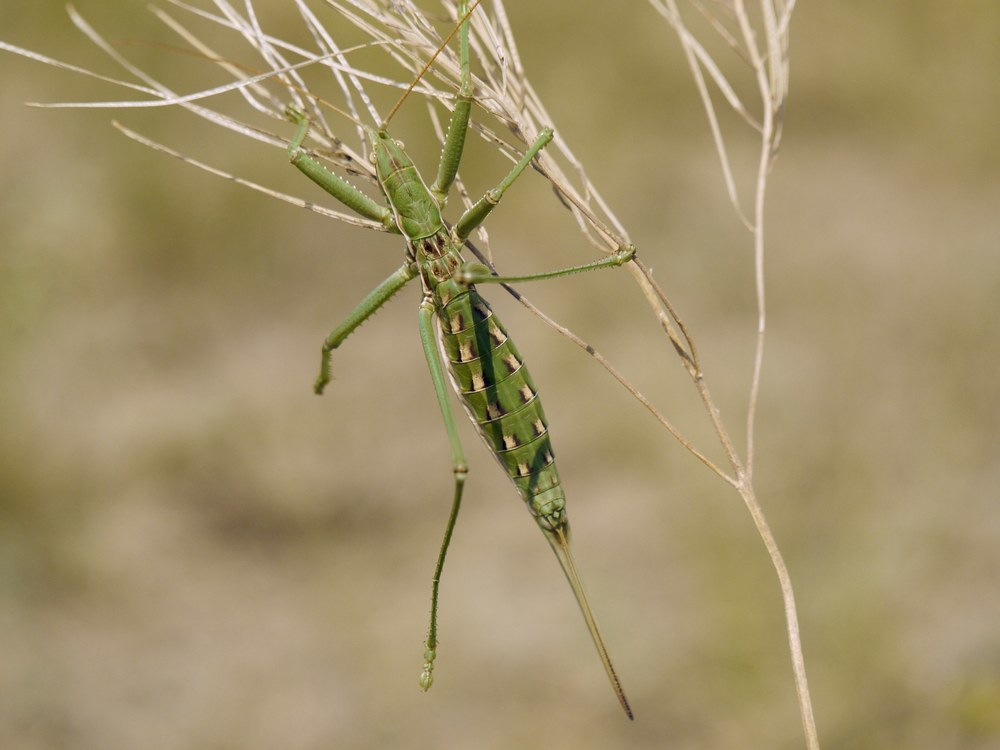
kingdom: Animalia
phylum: Arthropoda
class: Insecta
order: Orthoptera
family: Tettigoniidae
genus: Saga
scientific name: Saga pedo
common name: Common predatory bush-cricket
